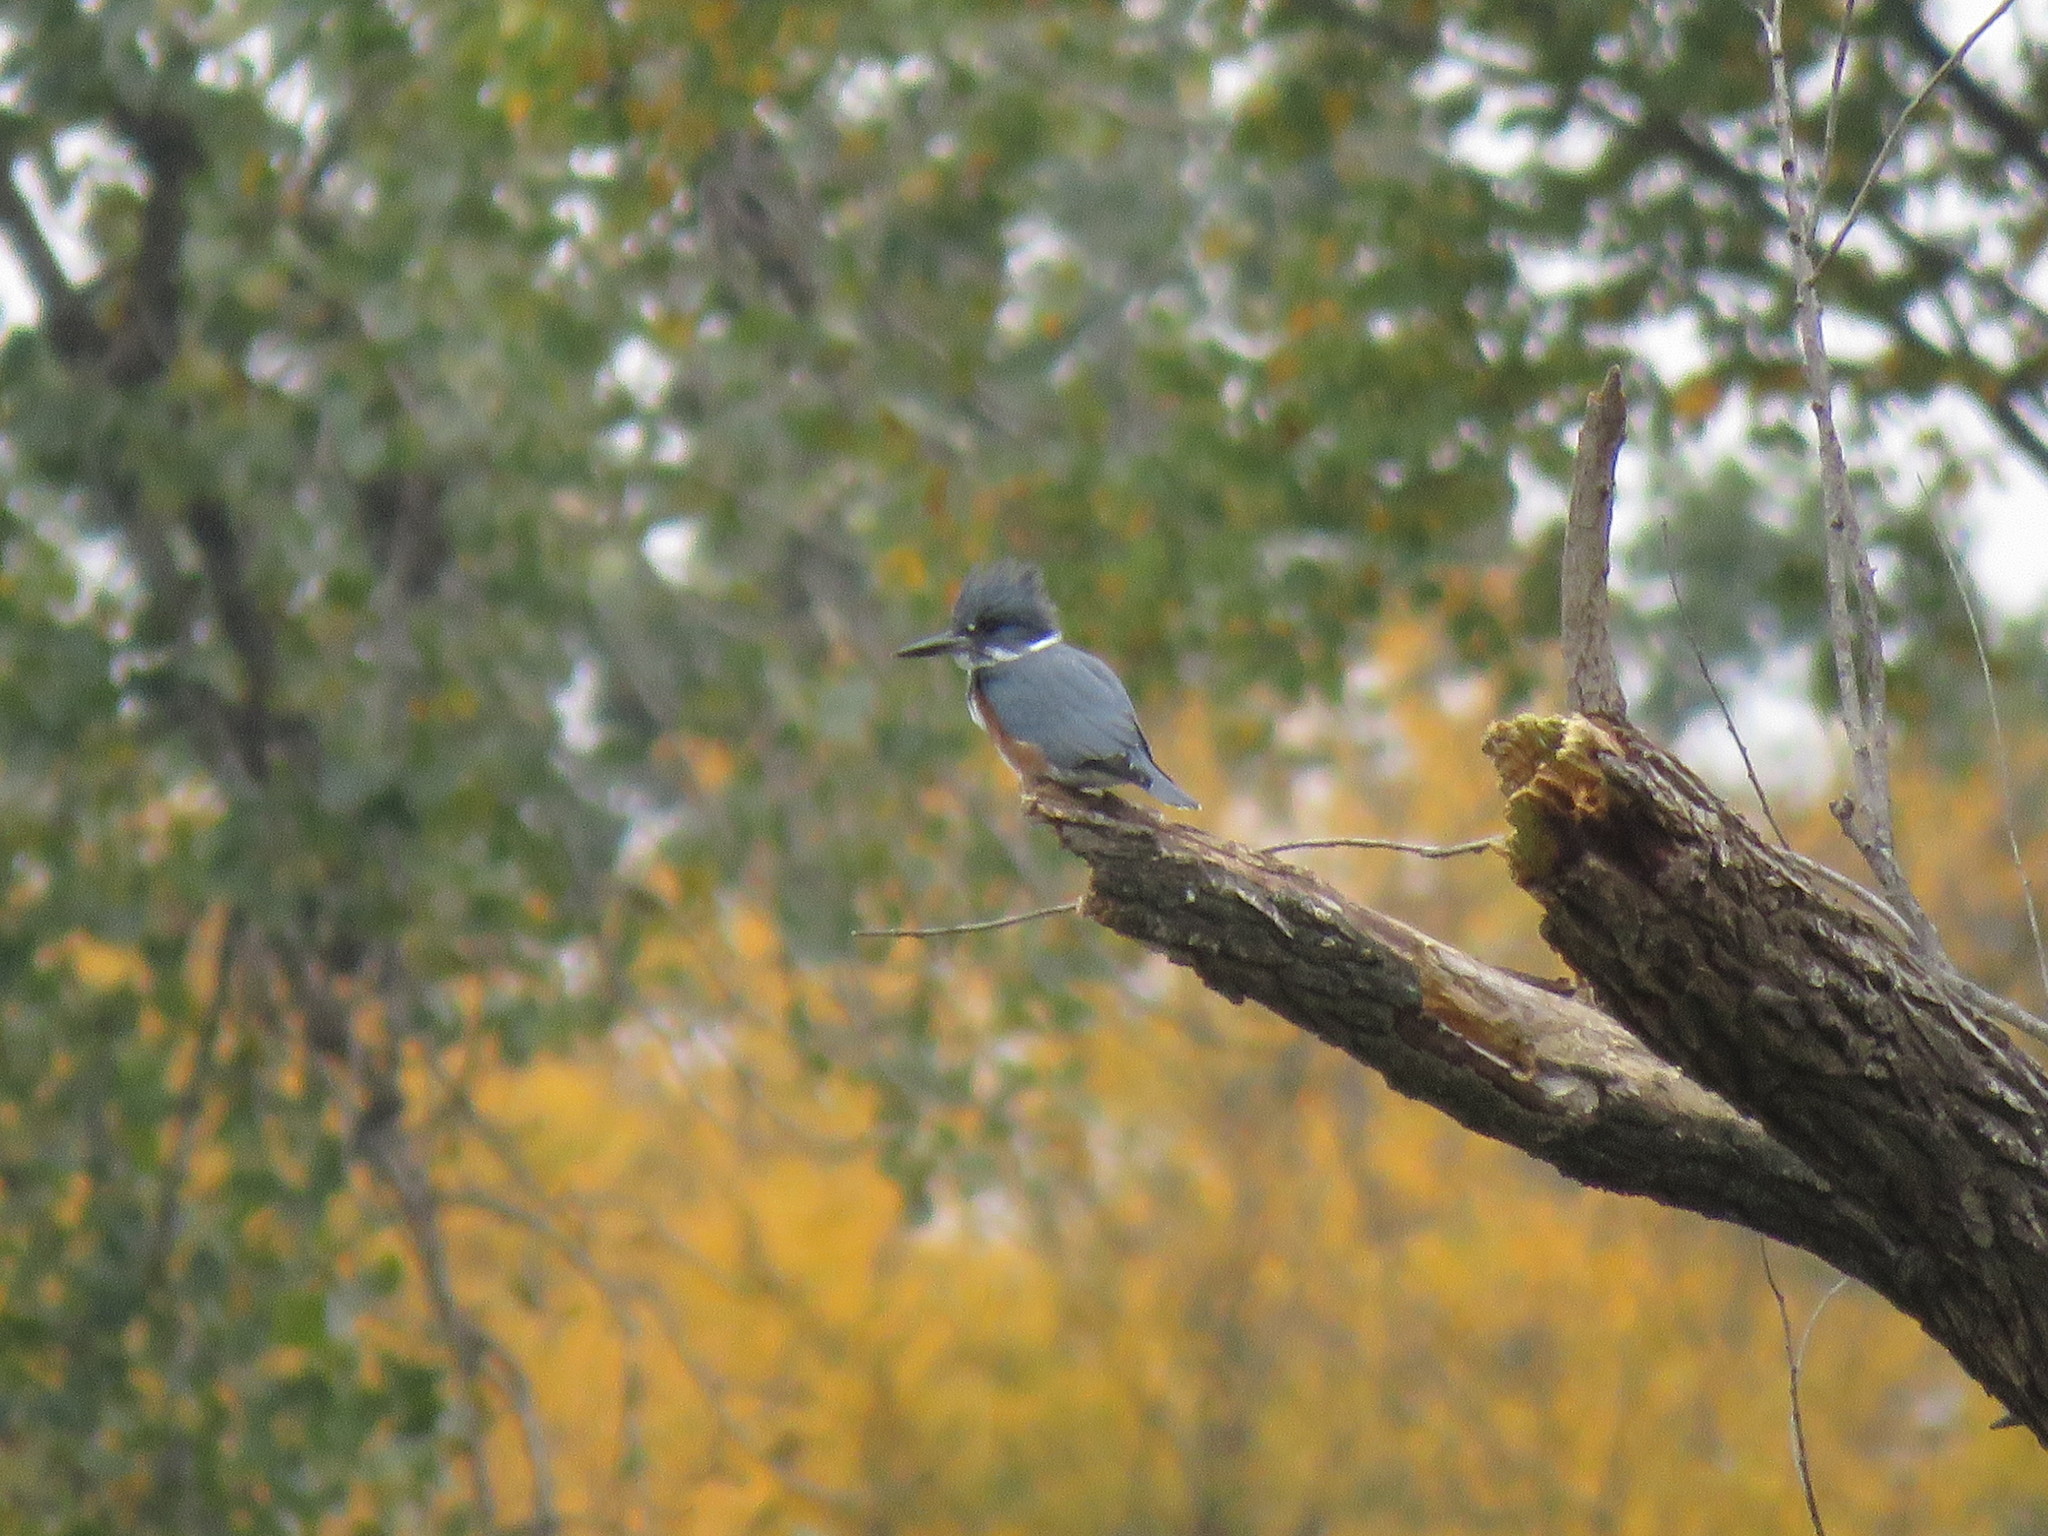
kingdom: Animalia
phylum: Chordata
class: Aves
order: Coraciiformes
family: Alcedinidae
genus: Megaceryle
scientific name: Megaceryle alcyon
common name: Belted kingfisher
